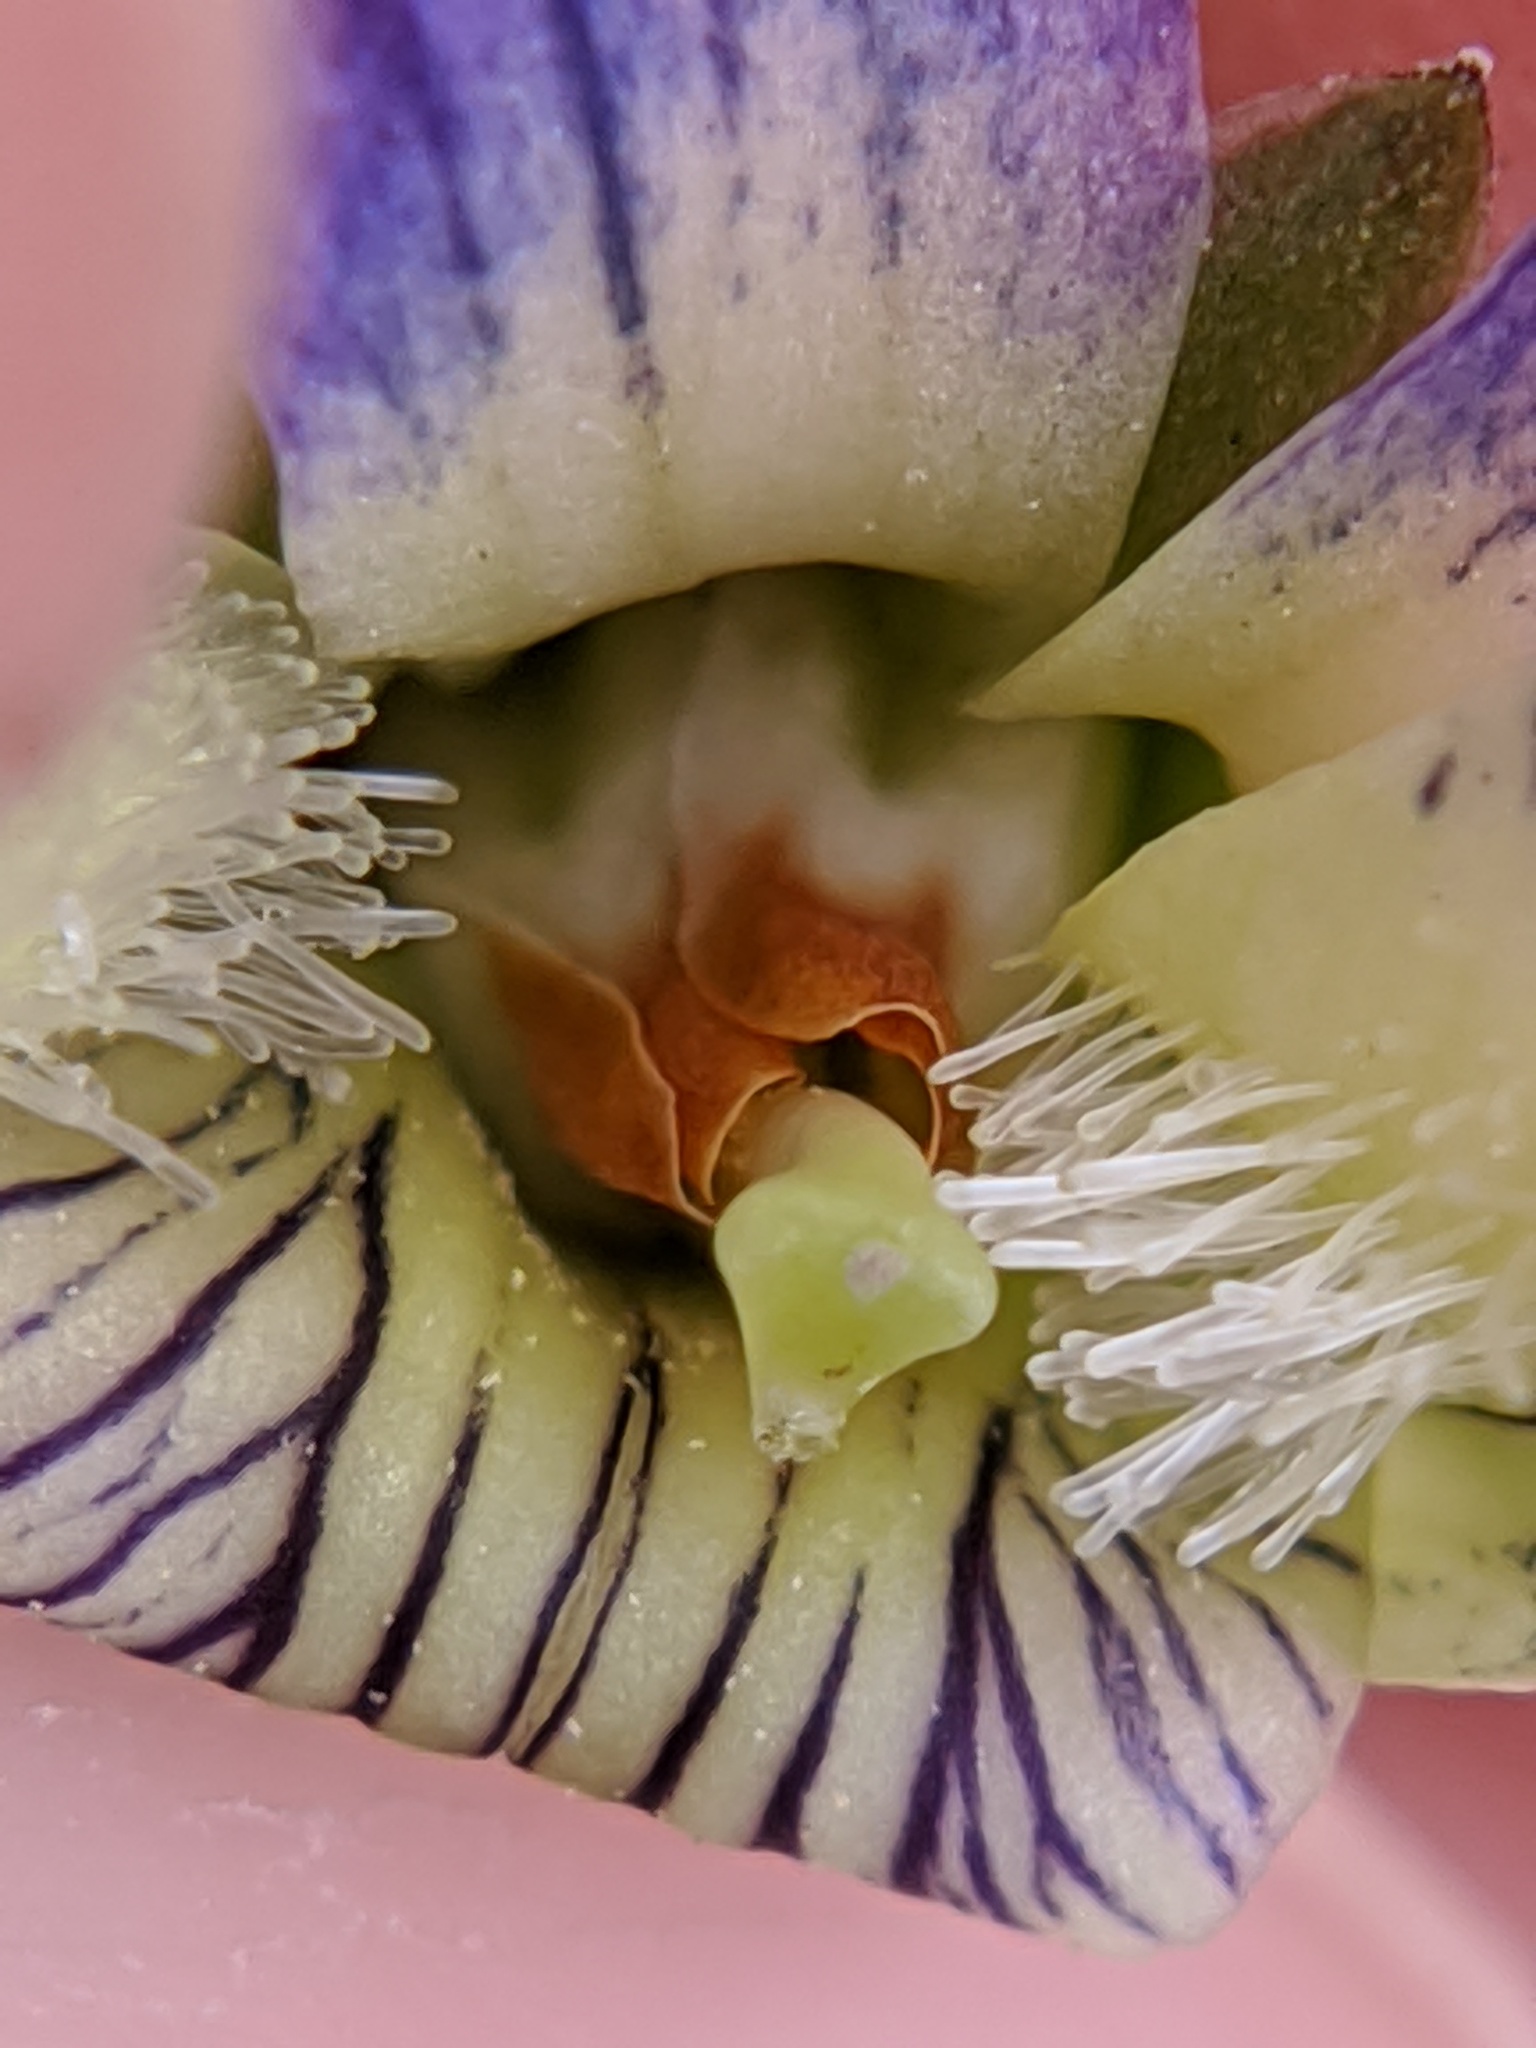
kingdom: Plantae
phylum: Tracheophyta
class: Magnoliopsida
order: Malpighiales
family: Violaceae
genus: Viola
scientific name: Viola sororia
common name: Dooryard violet
